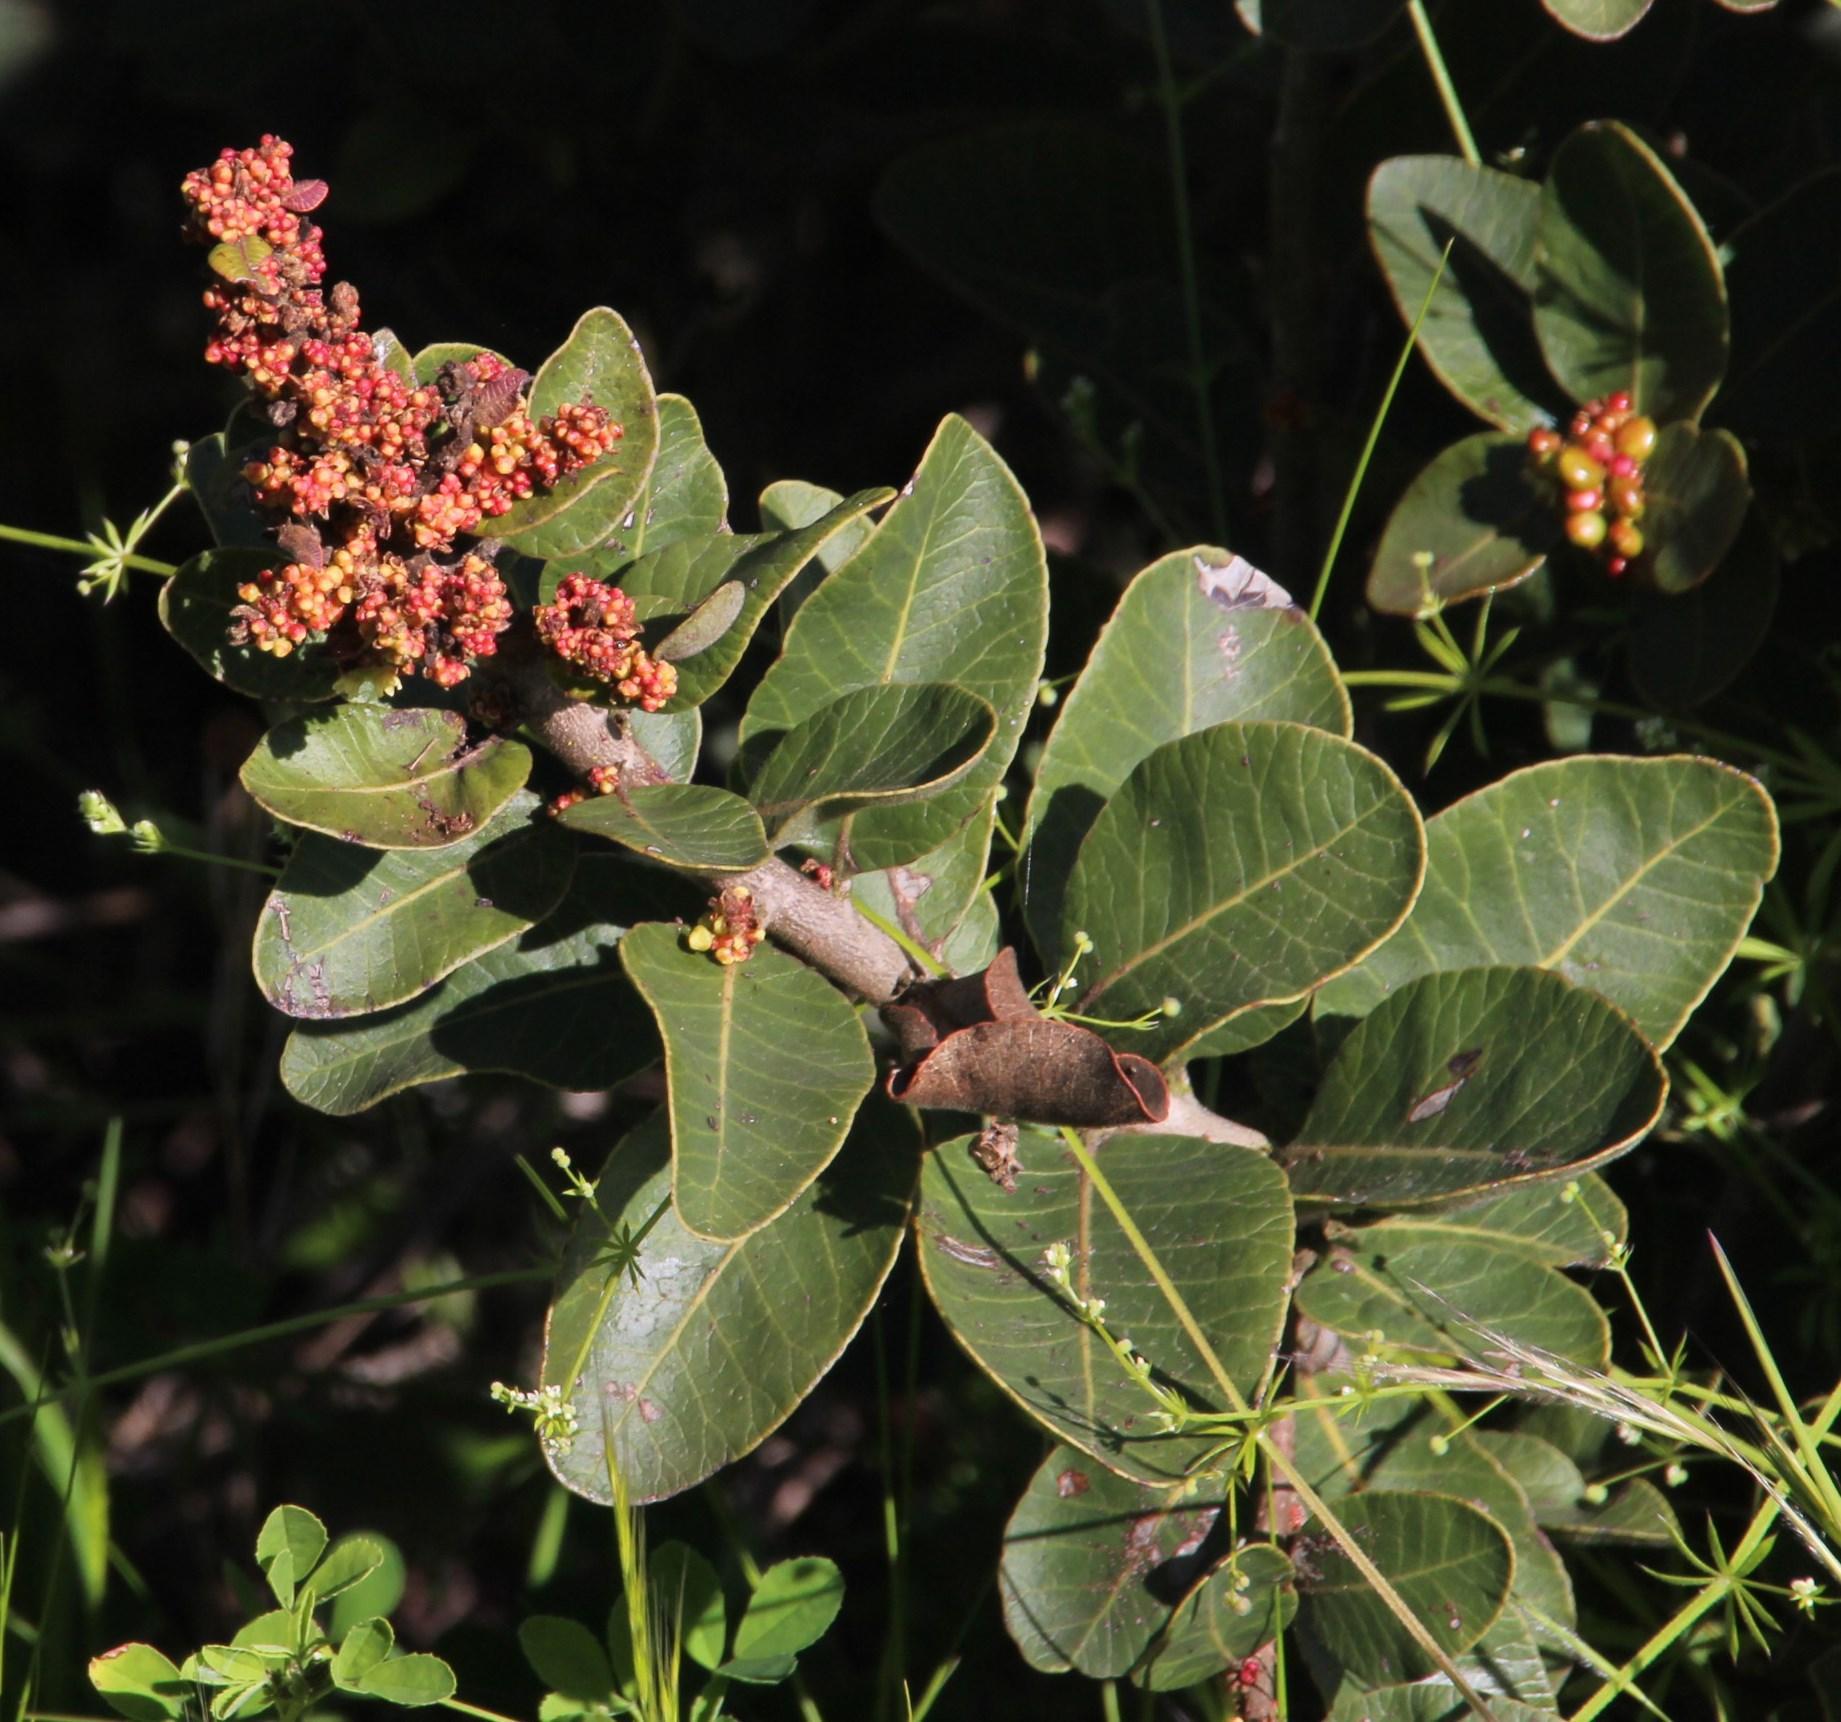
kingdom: Plantae
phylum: Tracheophyta
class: Magnoliopsida
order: Sapindales
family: Anacardiaceae
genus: Lithraea
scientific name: Lithraea caustica
